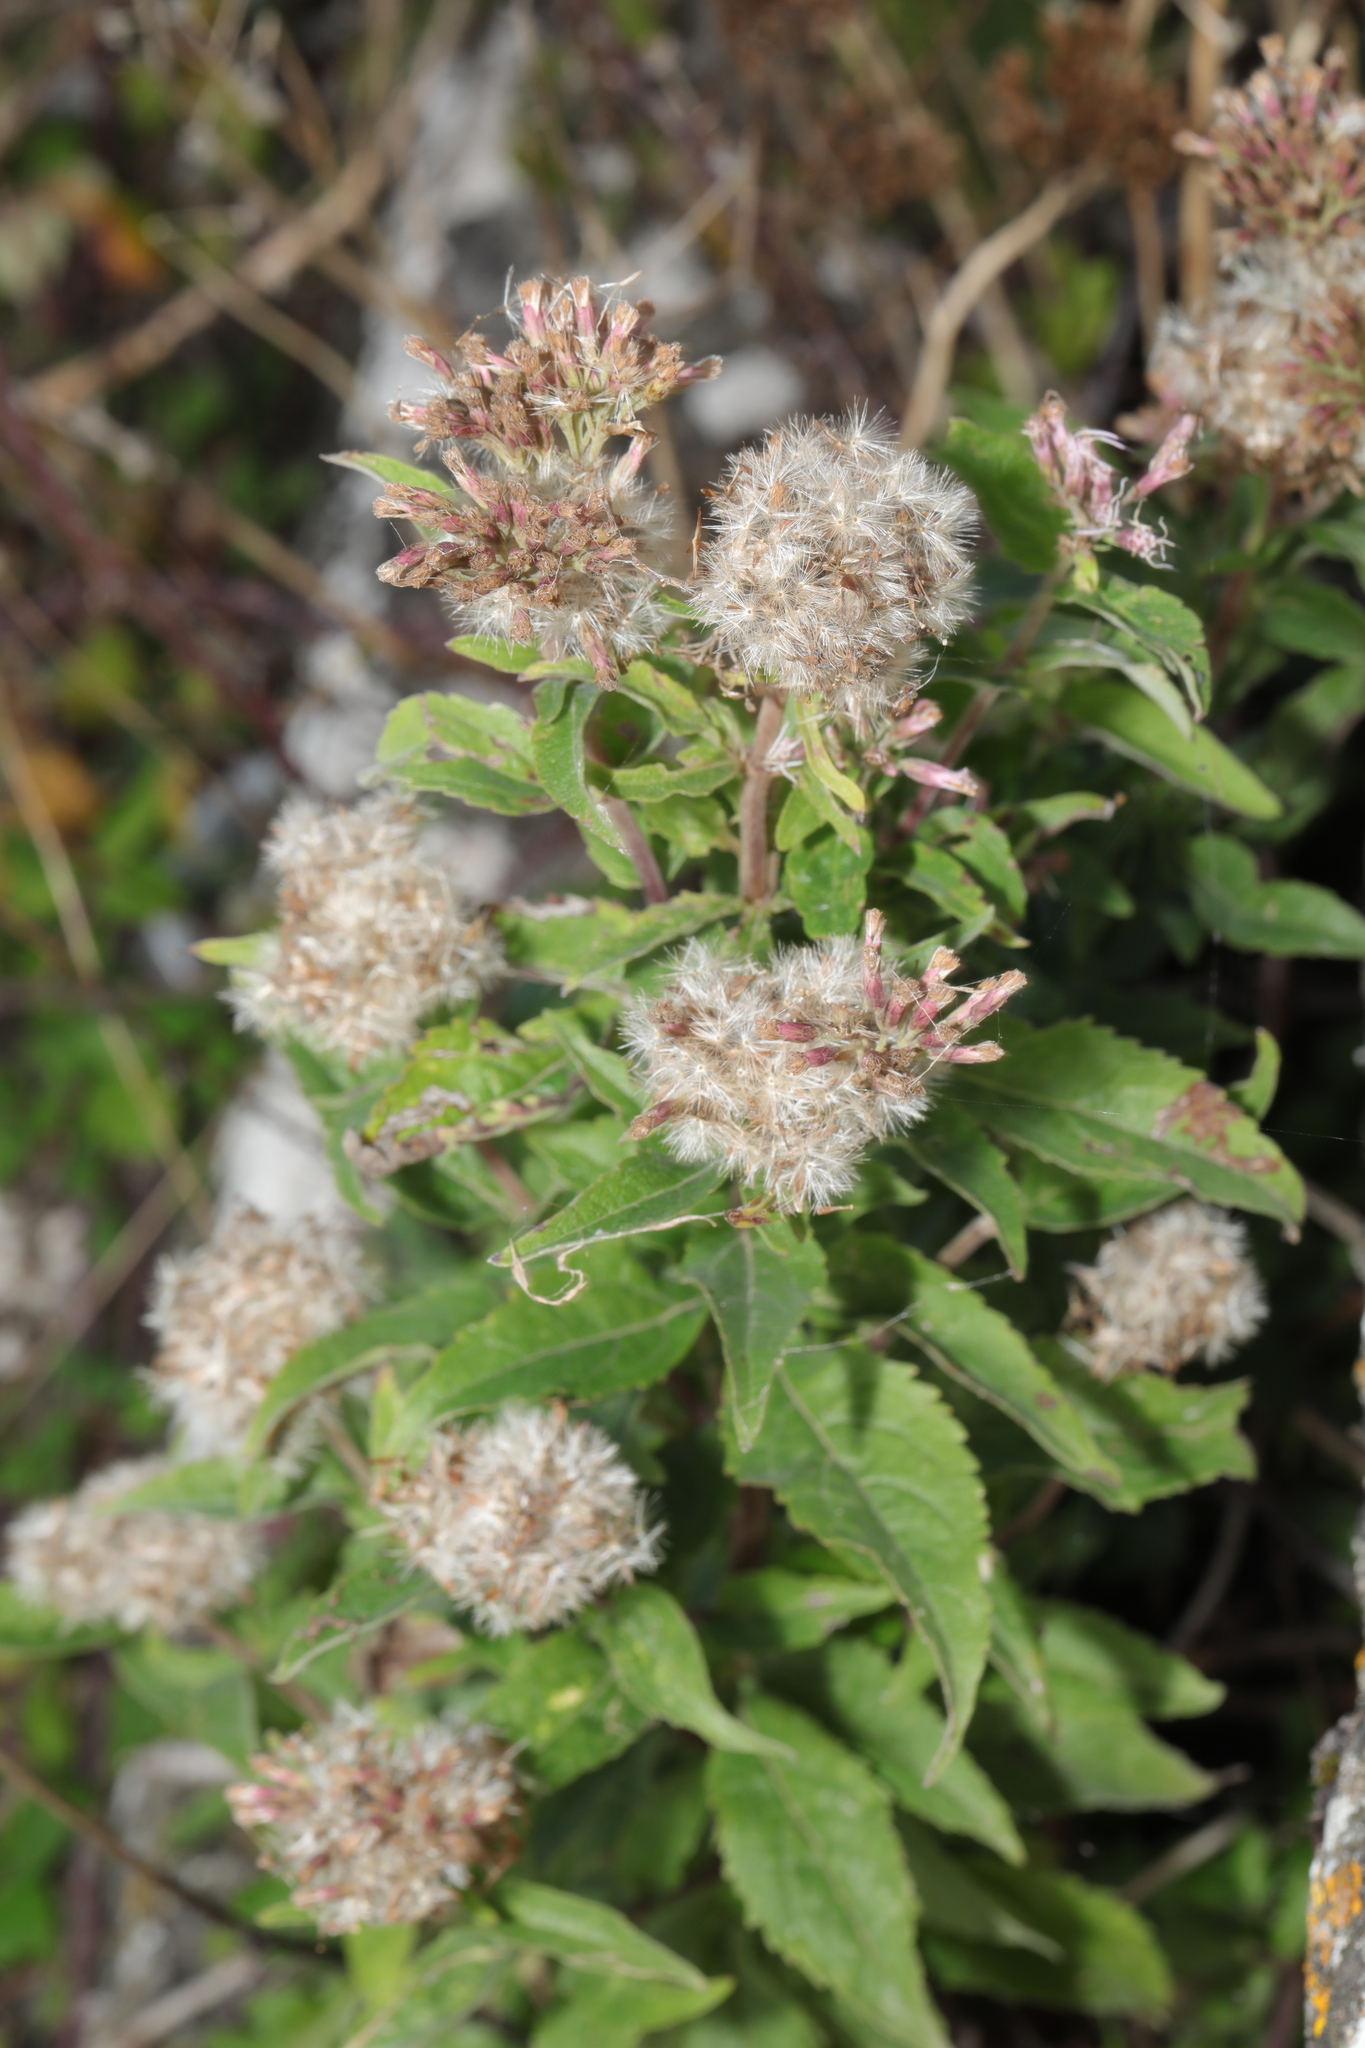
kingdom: Plantae
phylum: Tracheophyta
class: Magnoliopsida
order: Asterales
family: Asteraceae
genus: Eupatorium
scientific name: Eupatorium cannabinum
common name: Hemp-agrimony
